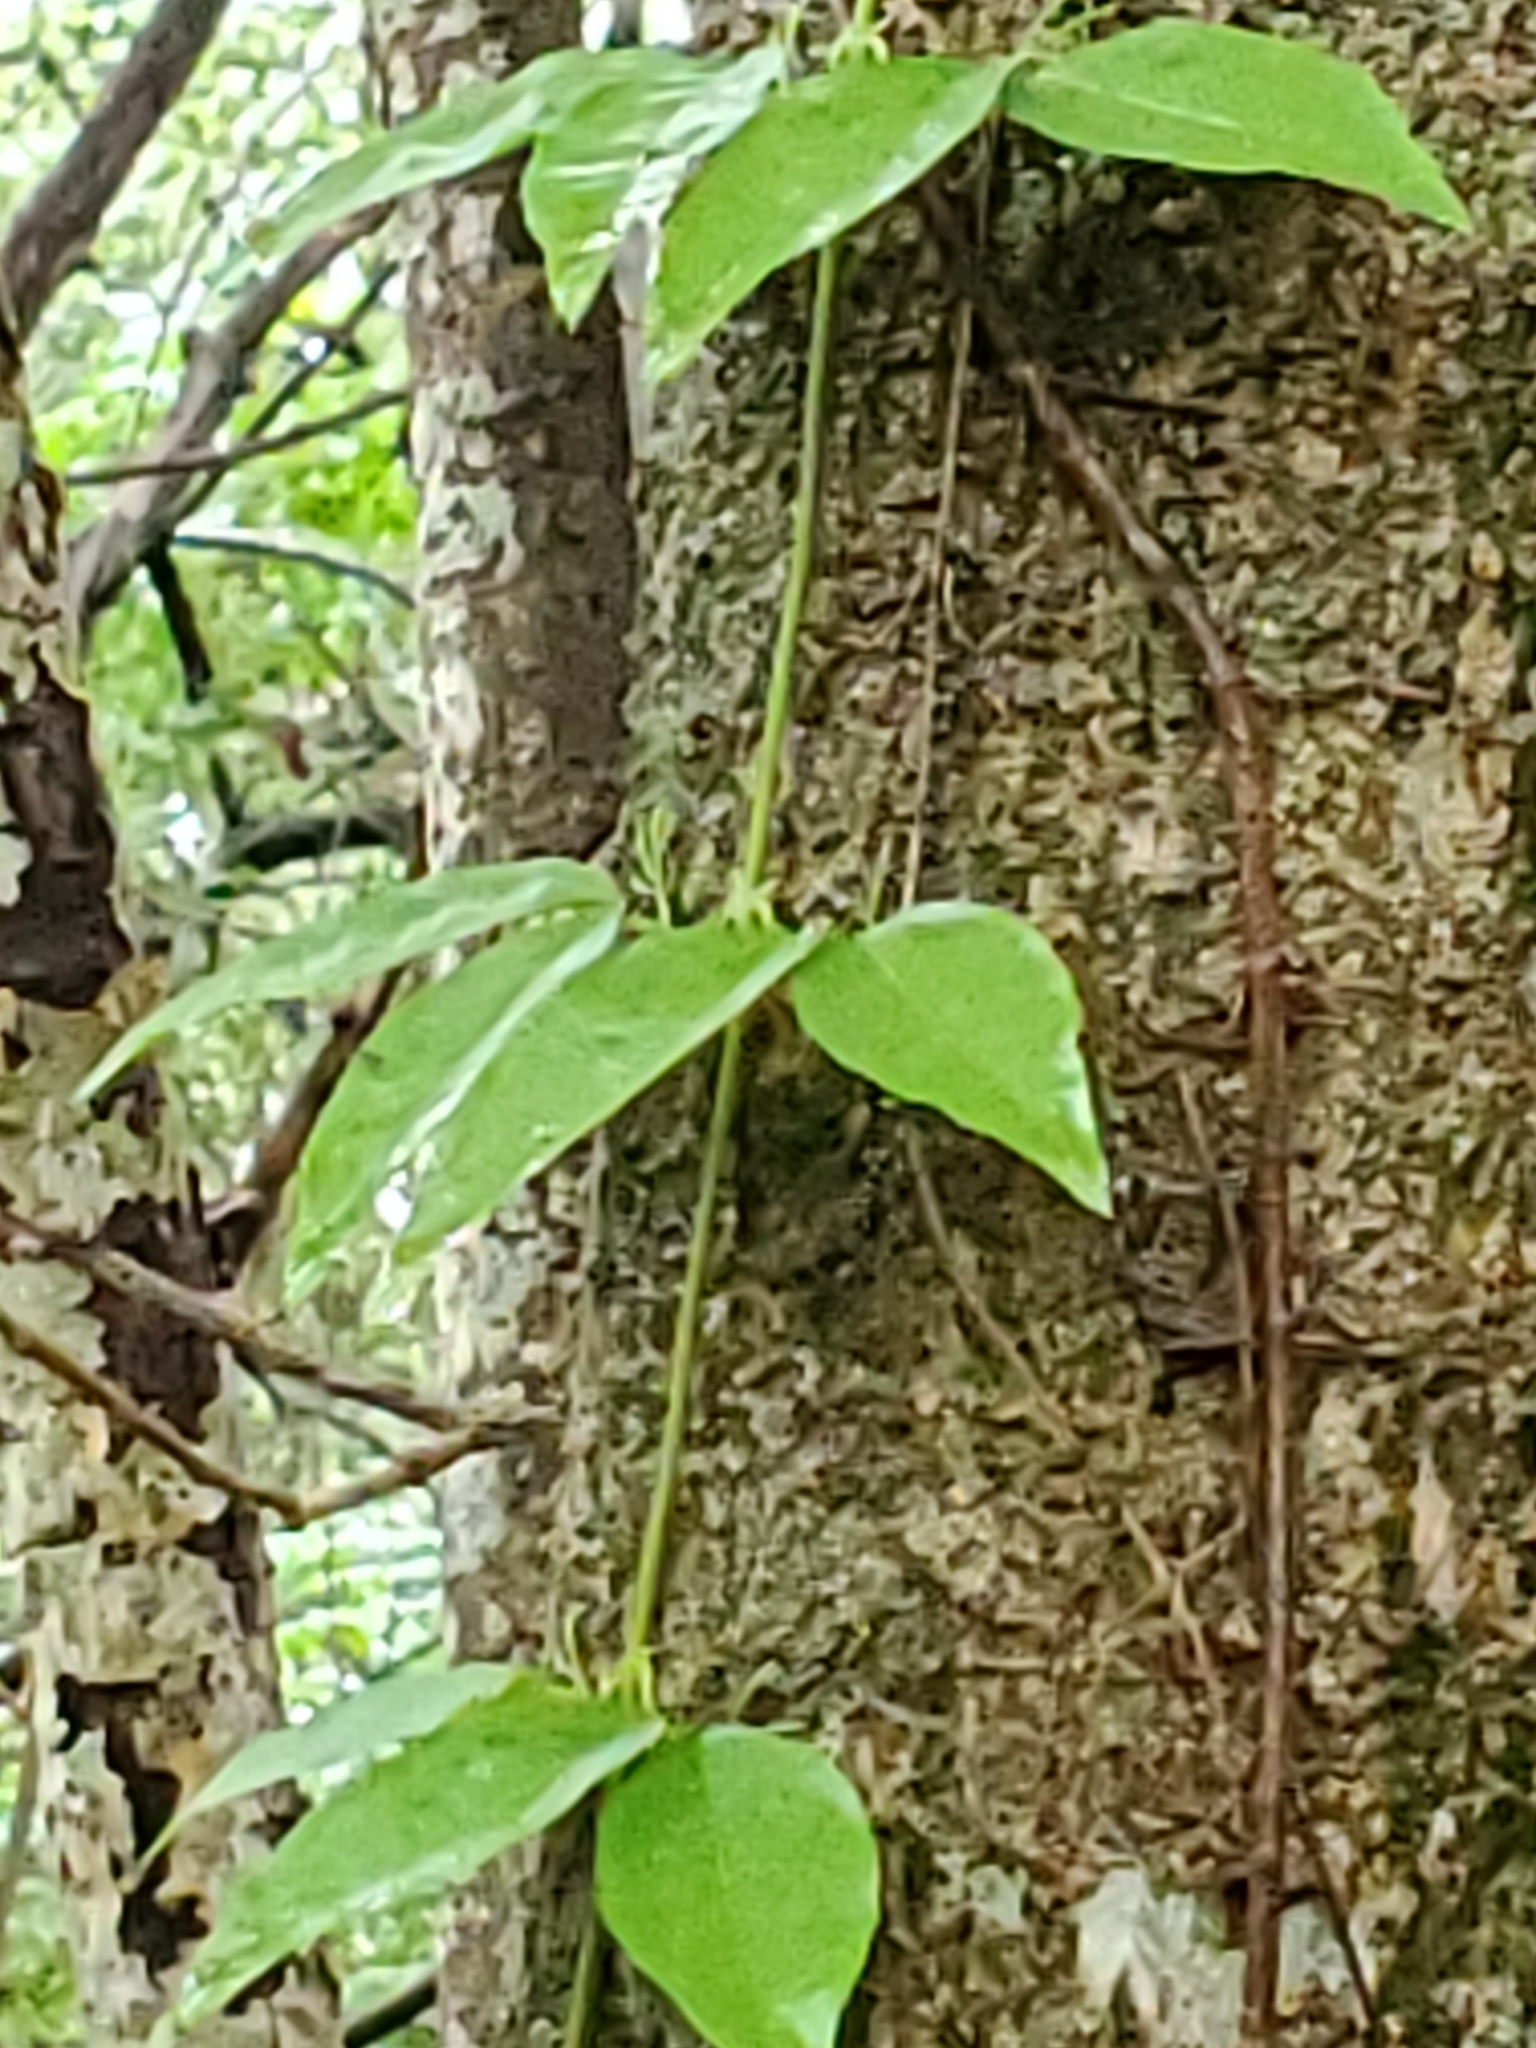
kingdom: Plantae
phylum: Tracheophyta
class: Magnoliopsida
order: Lamiales
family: Bignoniaceae
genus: Dolichandra
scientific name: Dolichandra unguis-cati
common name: Catclaw vine
